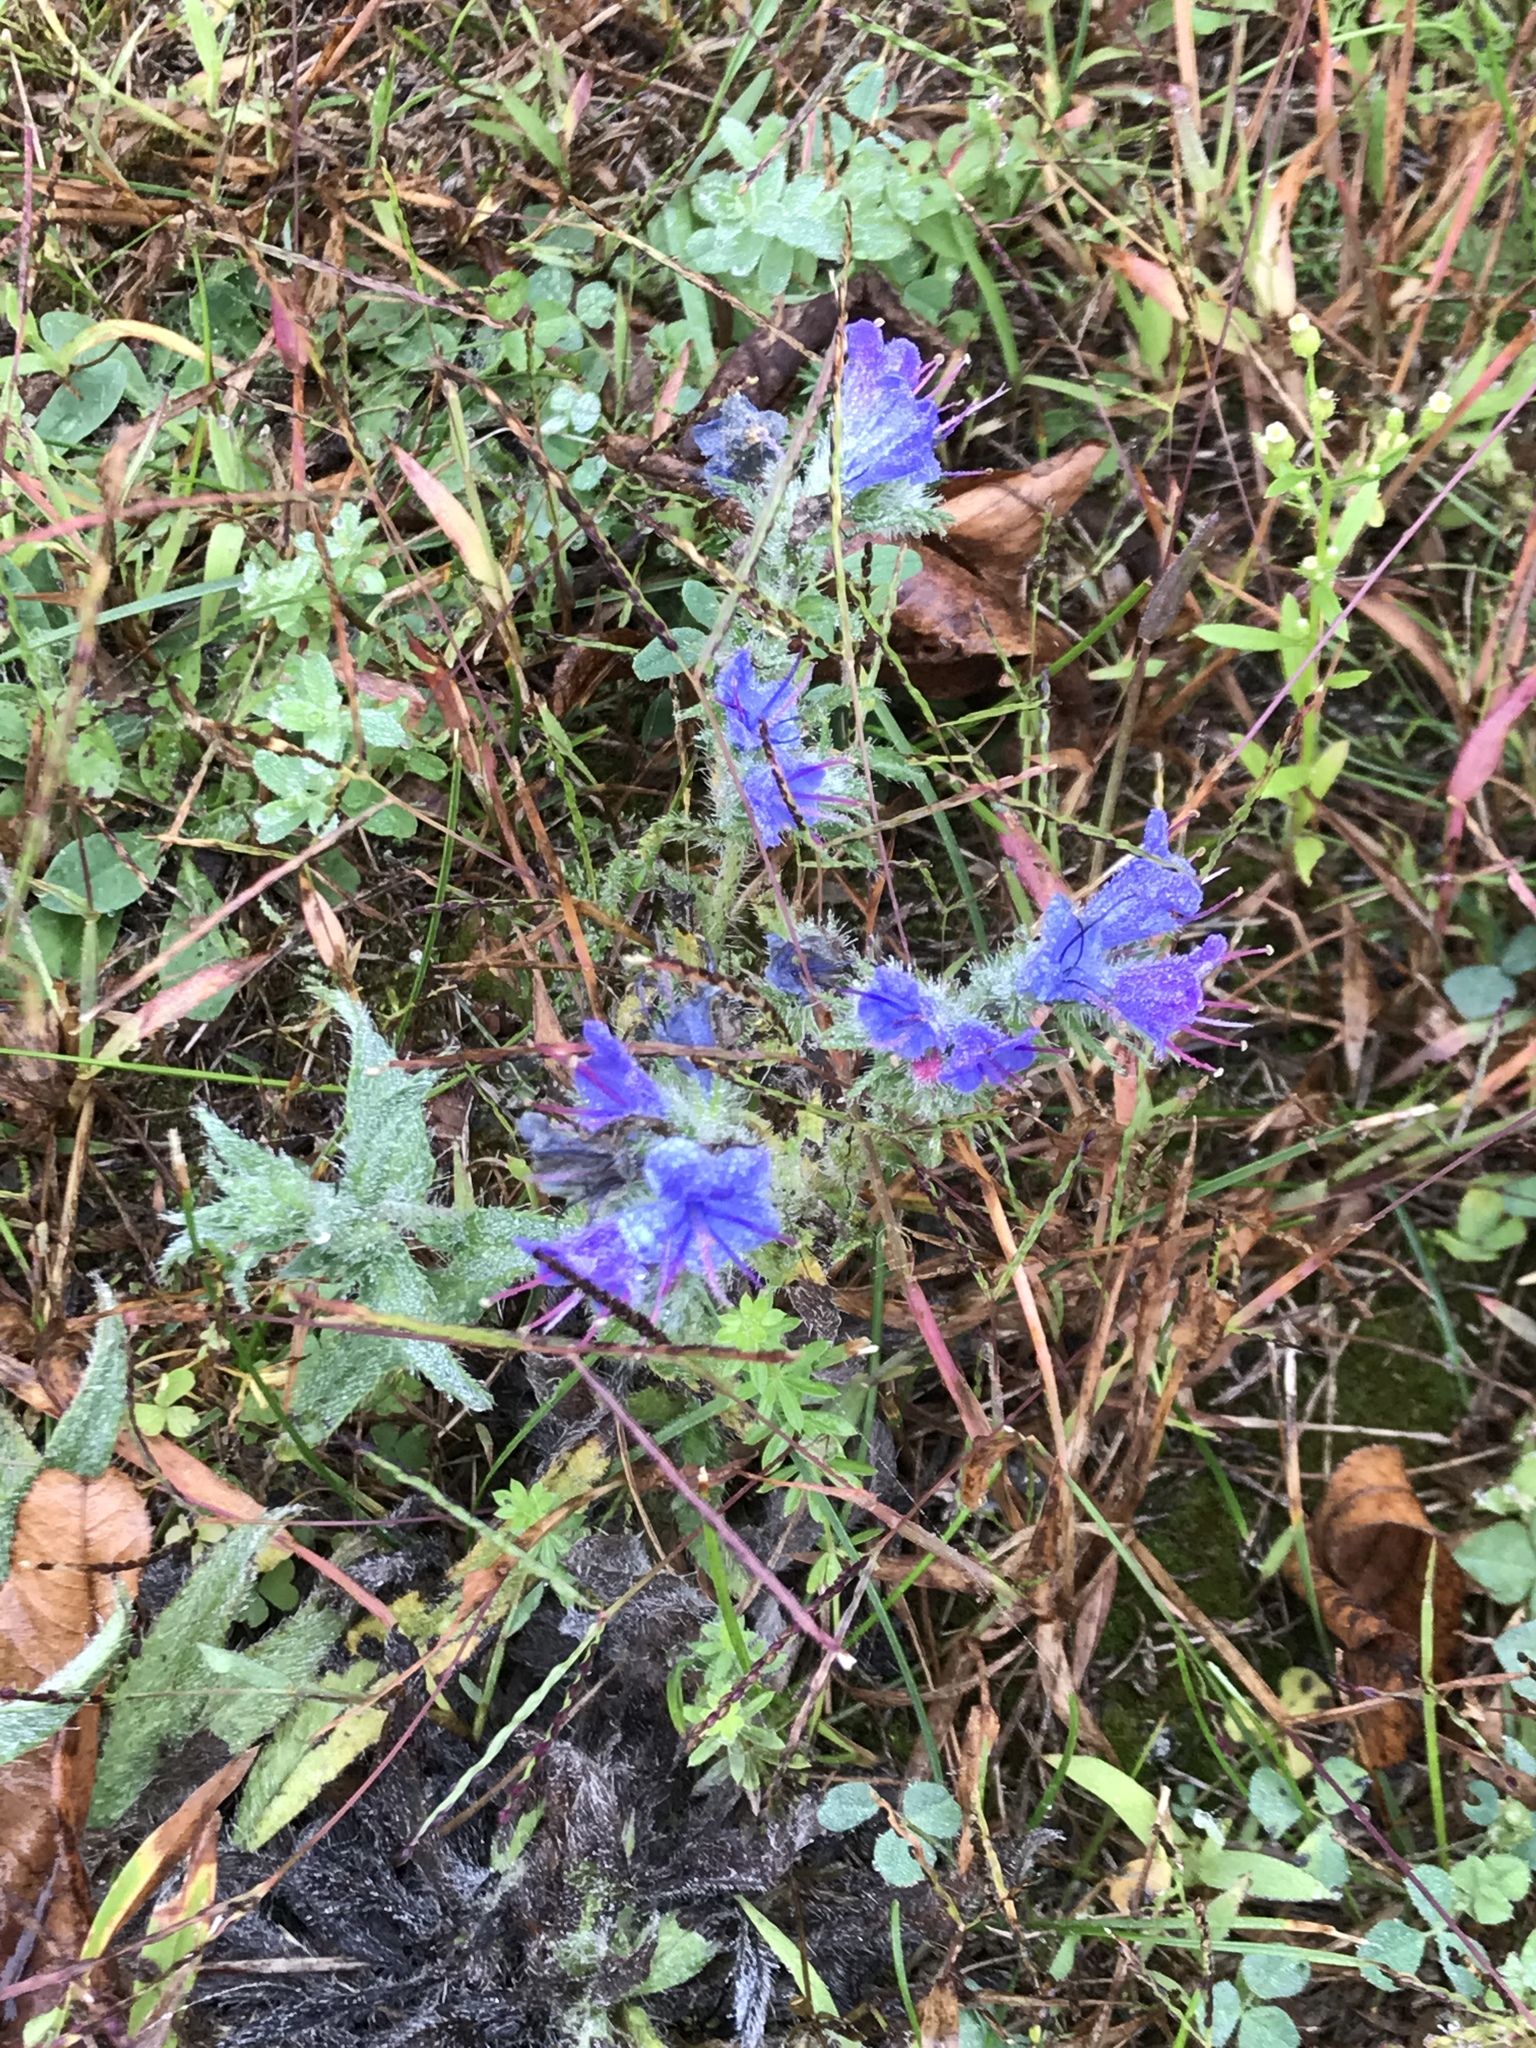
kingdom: Plantae
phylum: Tracheophyta
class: Magnoliopsida
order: Boraginales
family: Boraginaceae
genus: Echium
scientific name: Echium vulgare
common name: Common viper's bugloss
